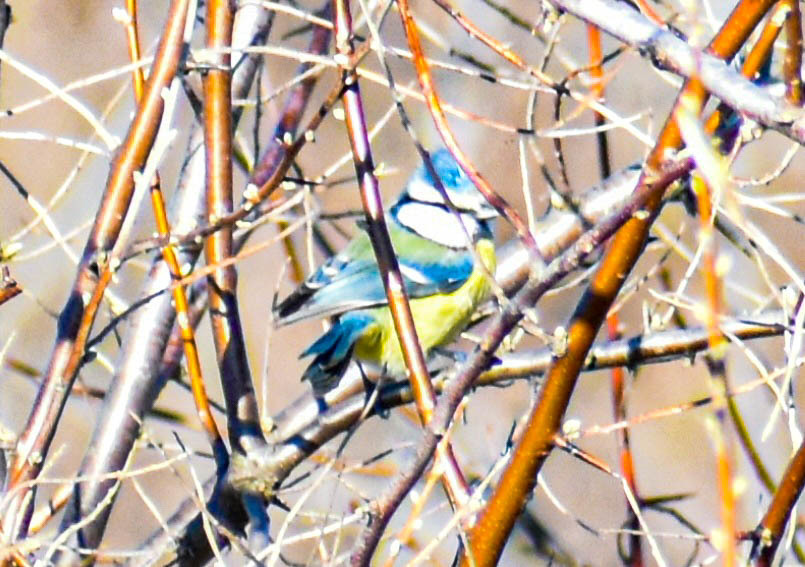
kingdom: Animalia
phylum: Chordata
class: Aves
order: Passeriformes
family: Paridae
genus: Cyanistes
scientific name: Cyanistes caeruleus
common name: Eurasian blue tit
